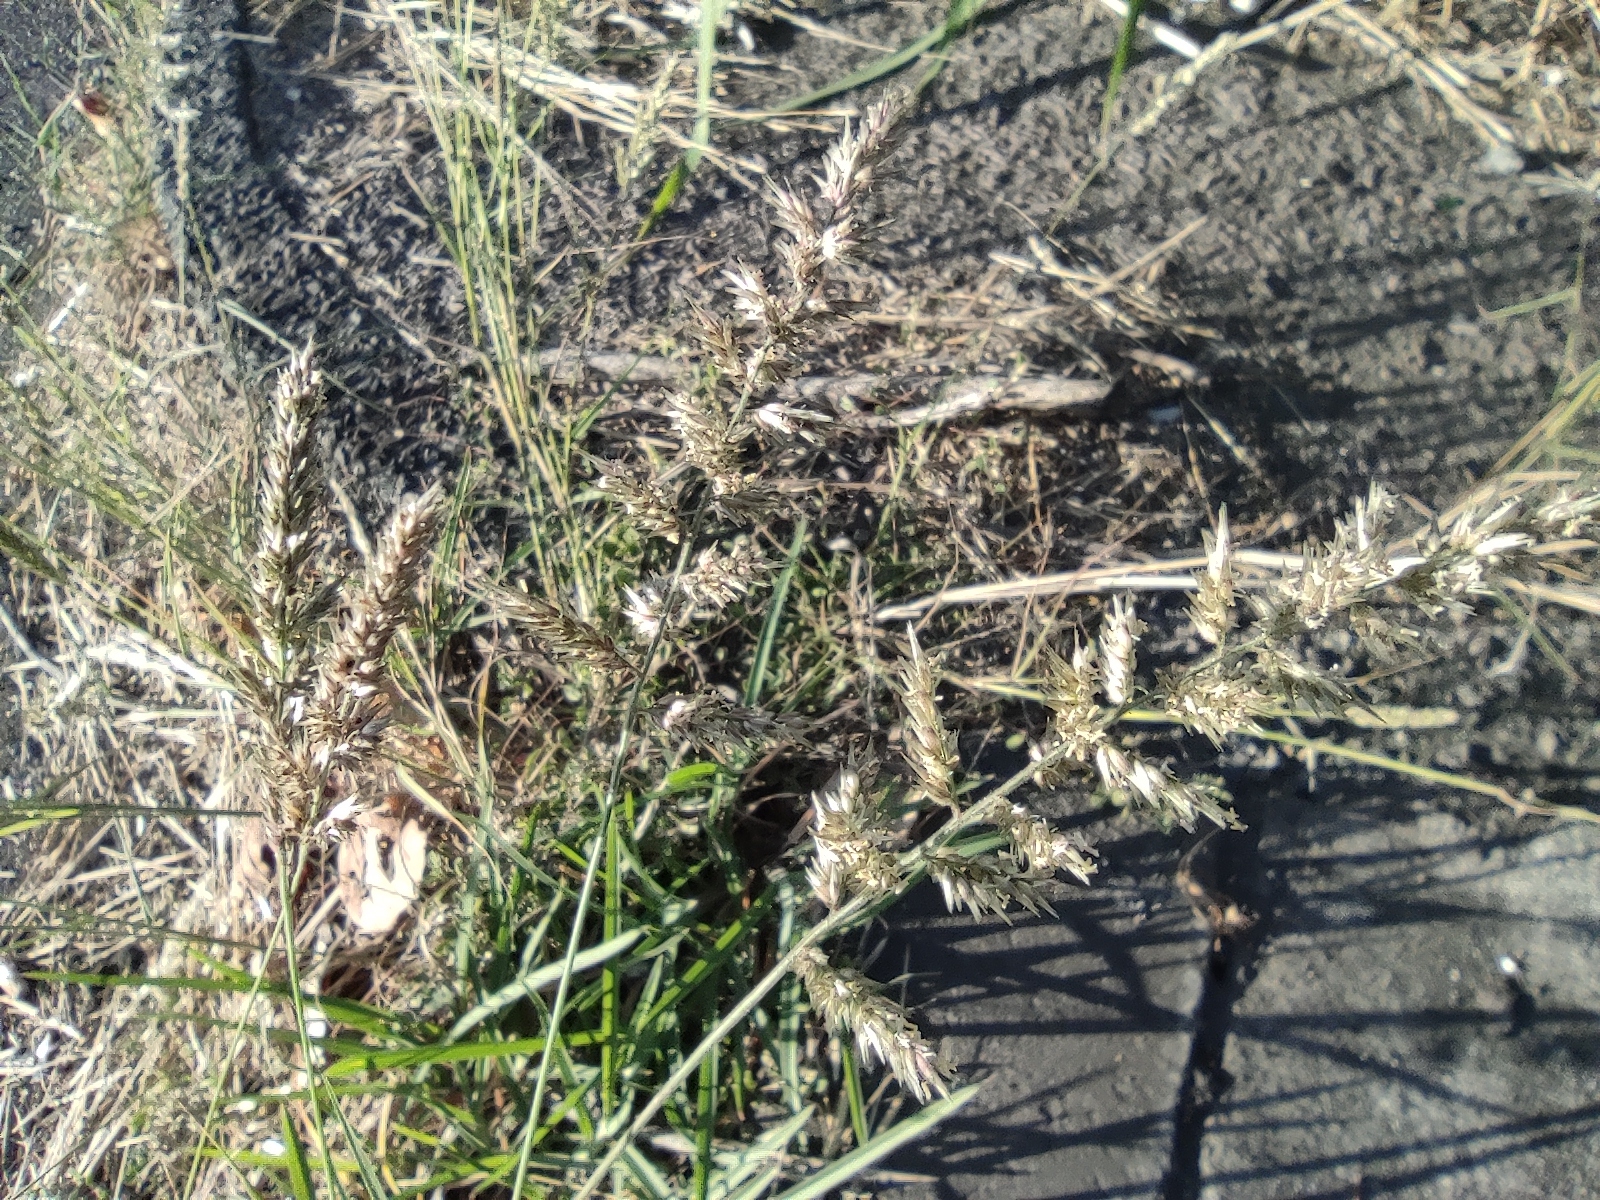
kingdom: Plantae
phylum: Tracheophyta
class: Liliopsida
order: Poales
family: Poaceae
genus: Enneapogon
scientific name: Enneapogon cenchroides
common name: Soft feather pappusgrass
